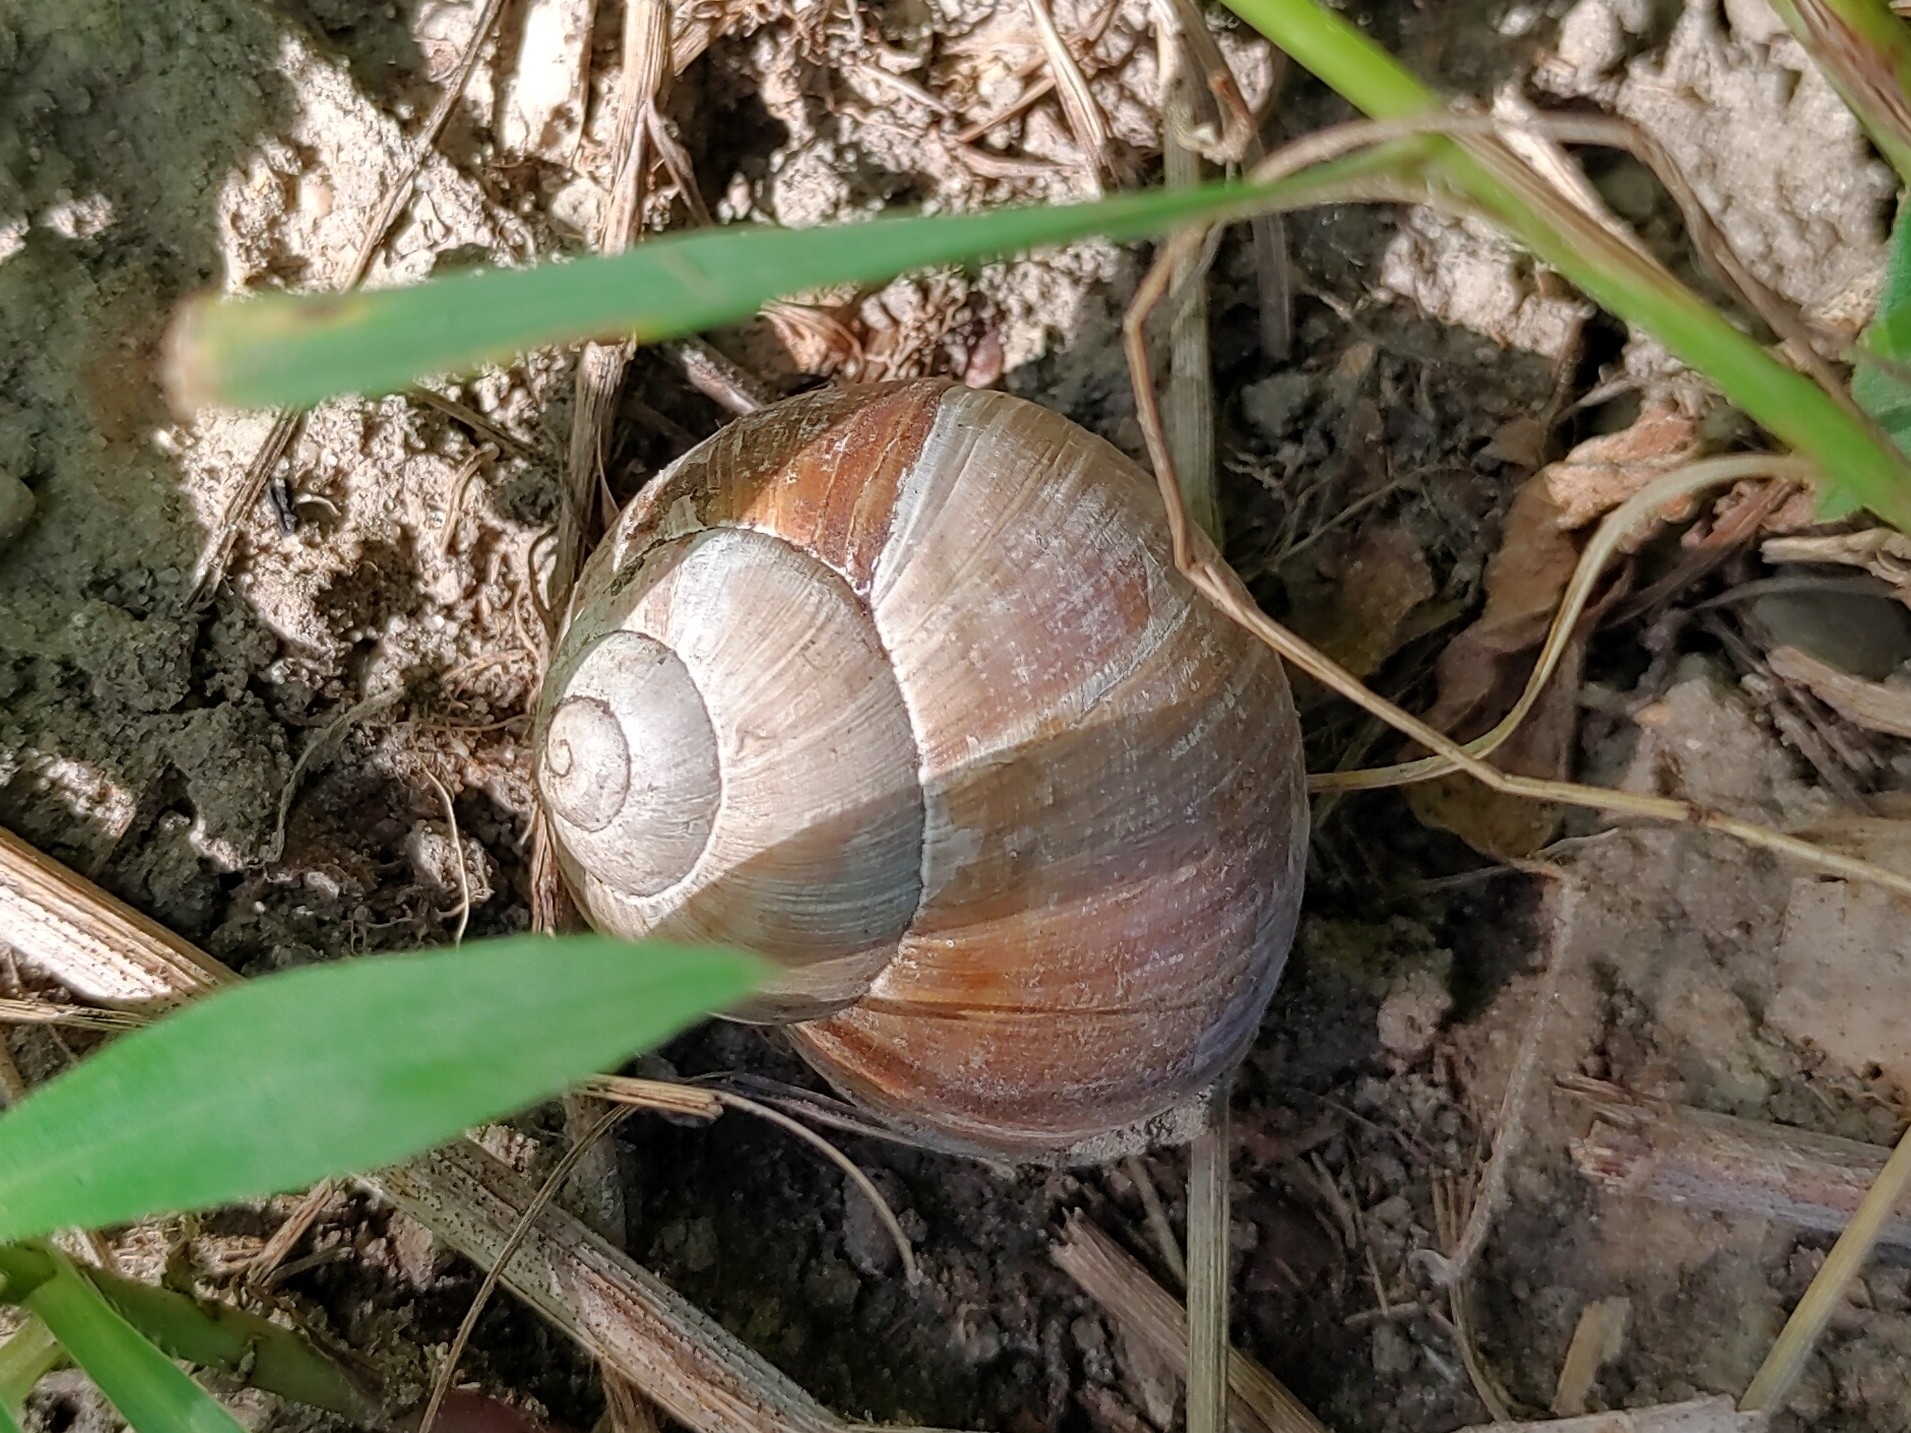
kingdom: Animalia
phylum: Mollusca
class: Gastropoda
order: Stylommatophora
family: Helicidae
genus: Helix
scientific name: Helix pomatia
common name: Roman snail
